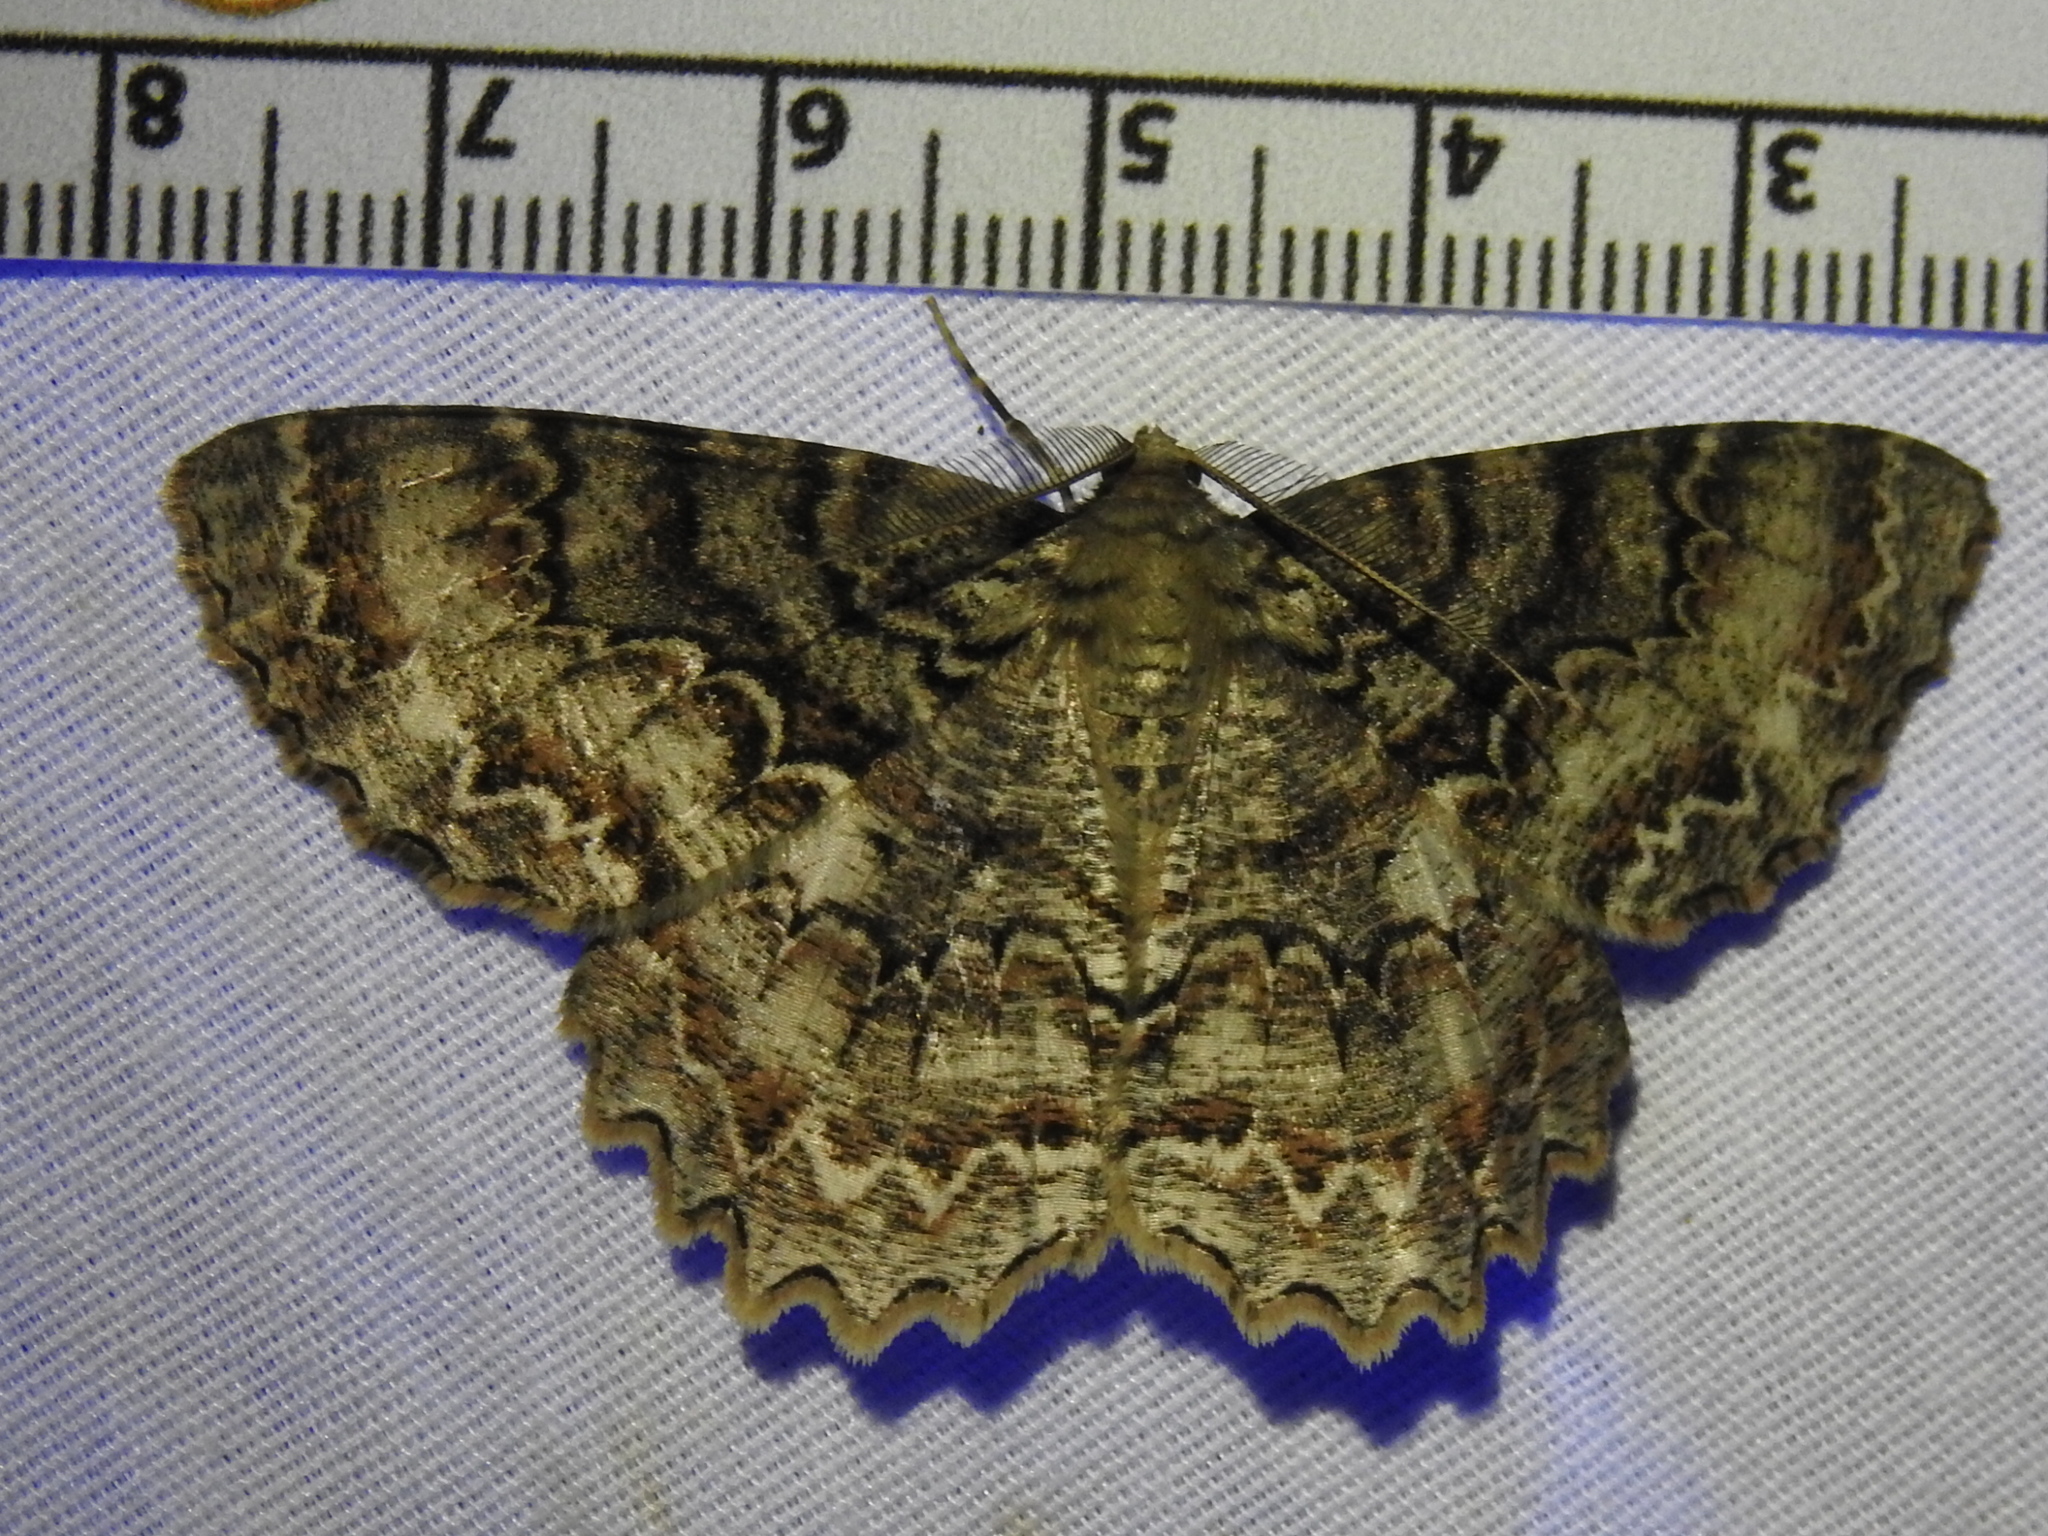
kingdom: Animalia
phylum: Arthropoda
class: Insecta
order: Lepidoptera
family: Geometridae
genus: Epimecis
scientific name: Epimecis hortaria
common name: Tulip-tree beauty
